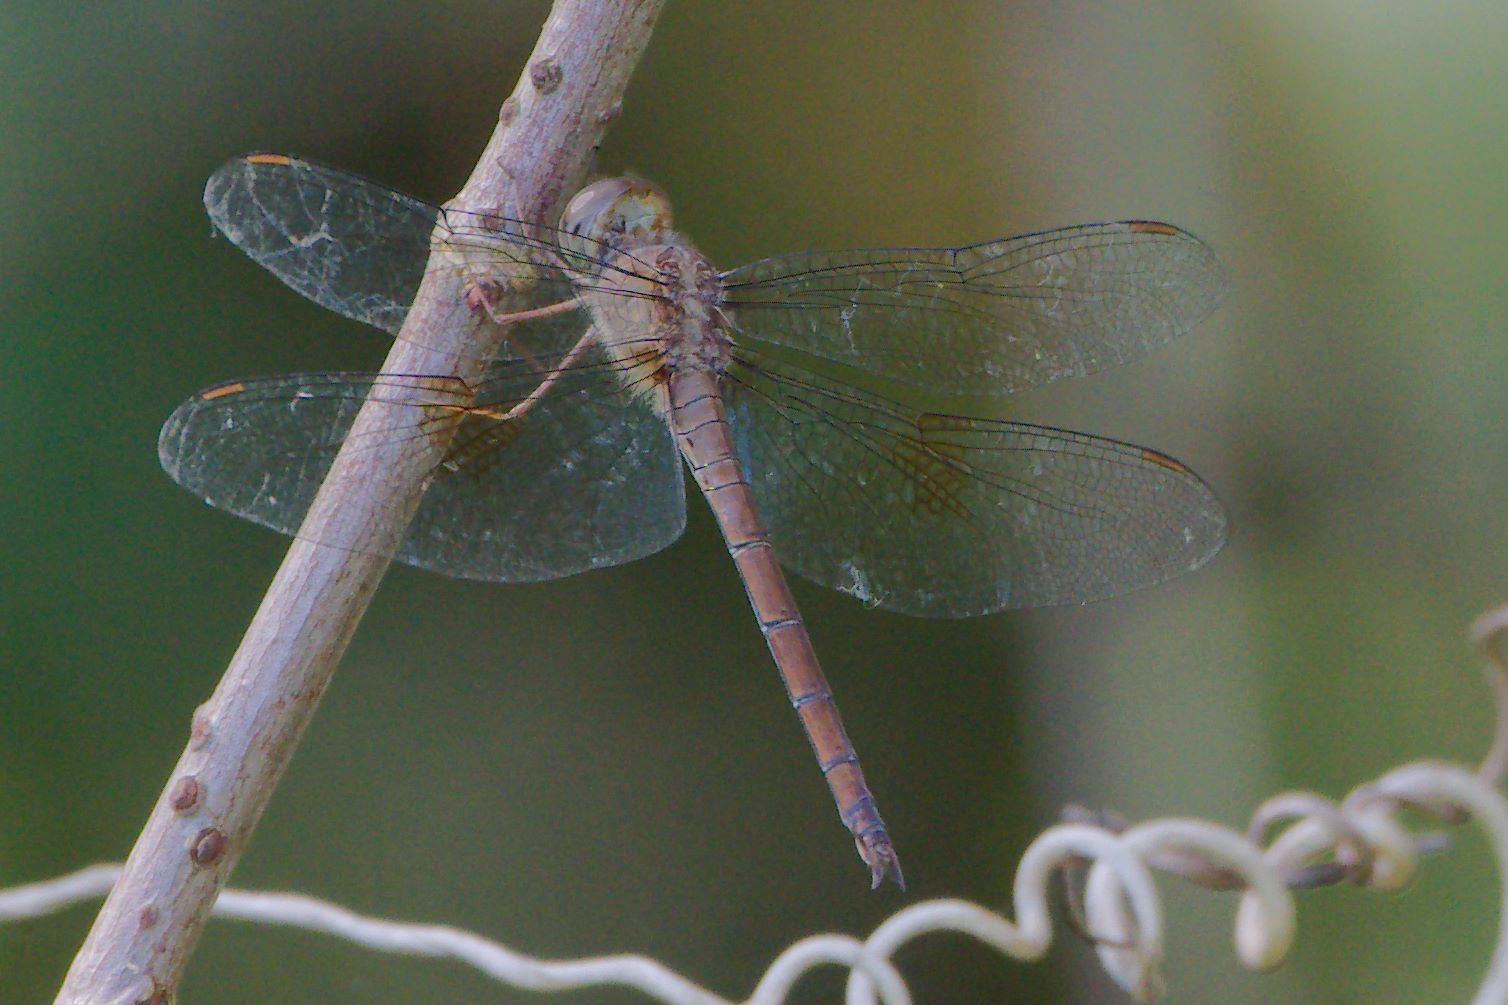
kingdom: Animalia
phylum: Arthropoda
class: Insecta
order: Odonata
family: Libellulidae
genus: Tholymis
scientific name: Tholymis citrina
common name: Evening skimmer
